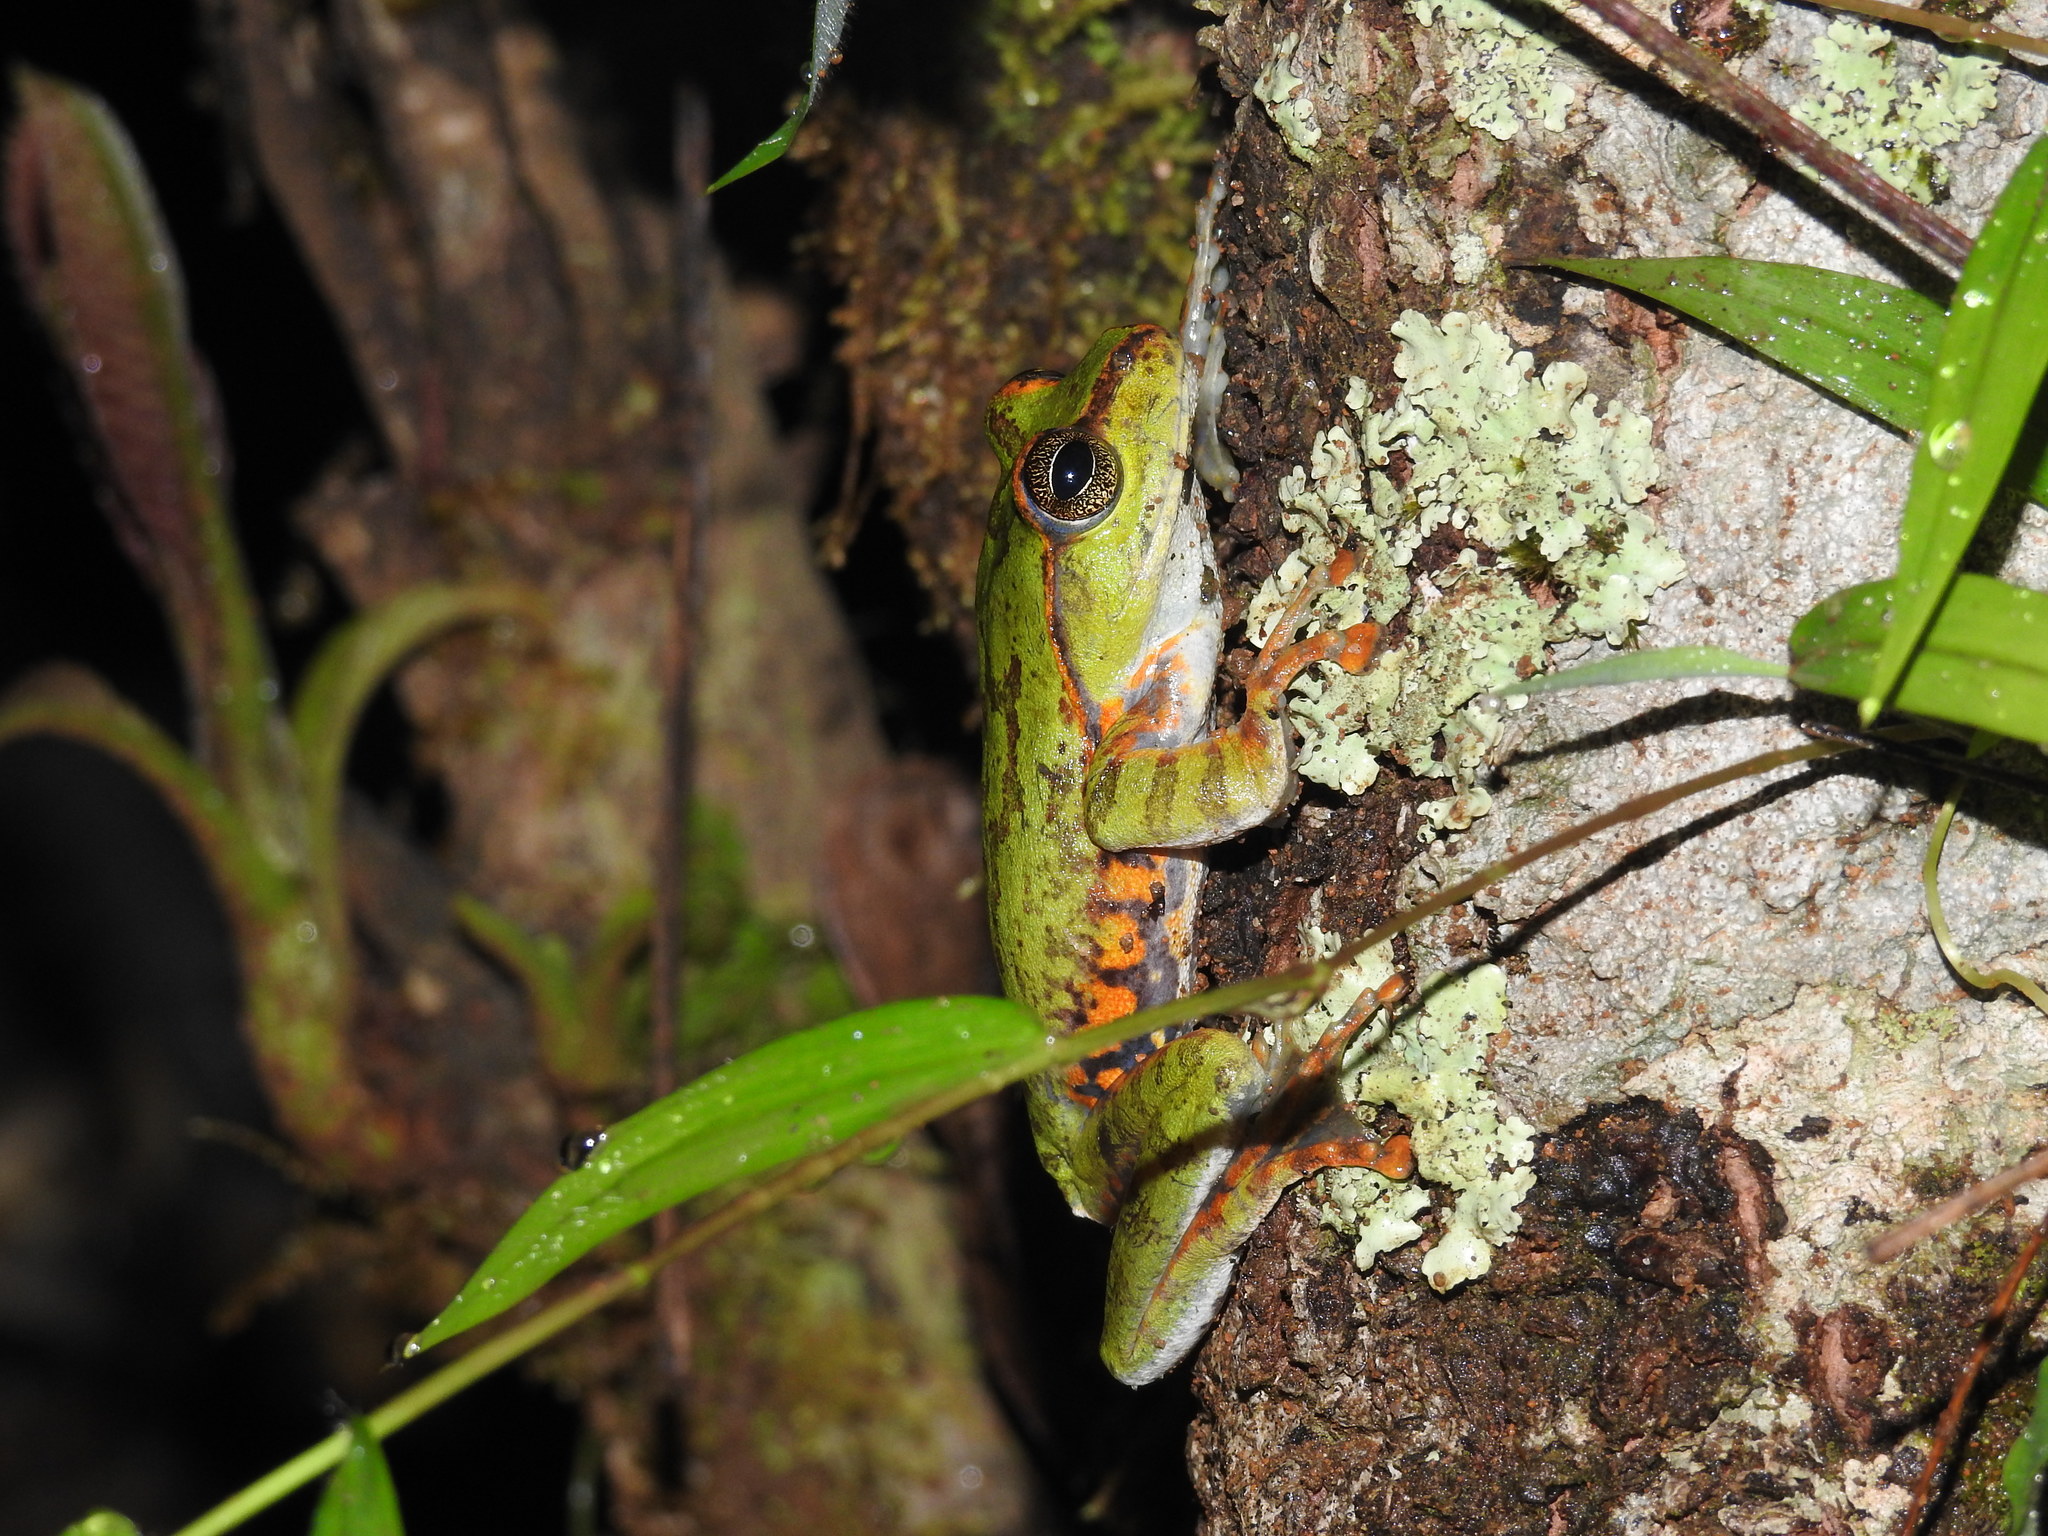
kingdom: Animalia
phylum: Chordata
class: Amphibia
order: Anura
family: Rhacophoridae
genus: Ghatixalus
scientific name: Ghatixalus variabilis
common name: Green frog of the neelgherries
